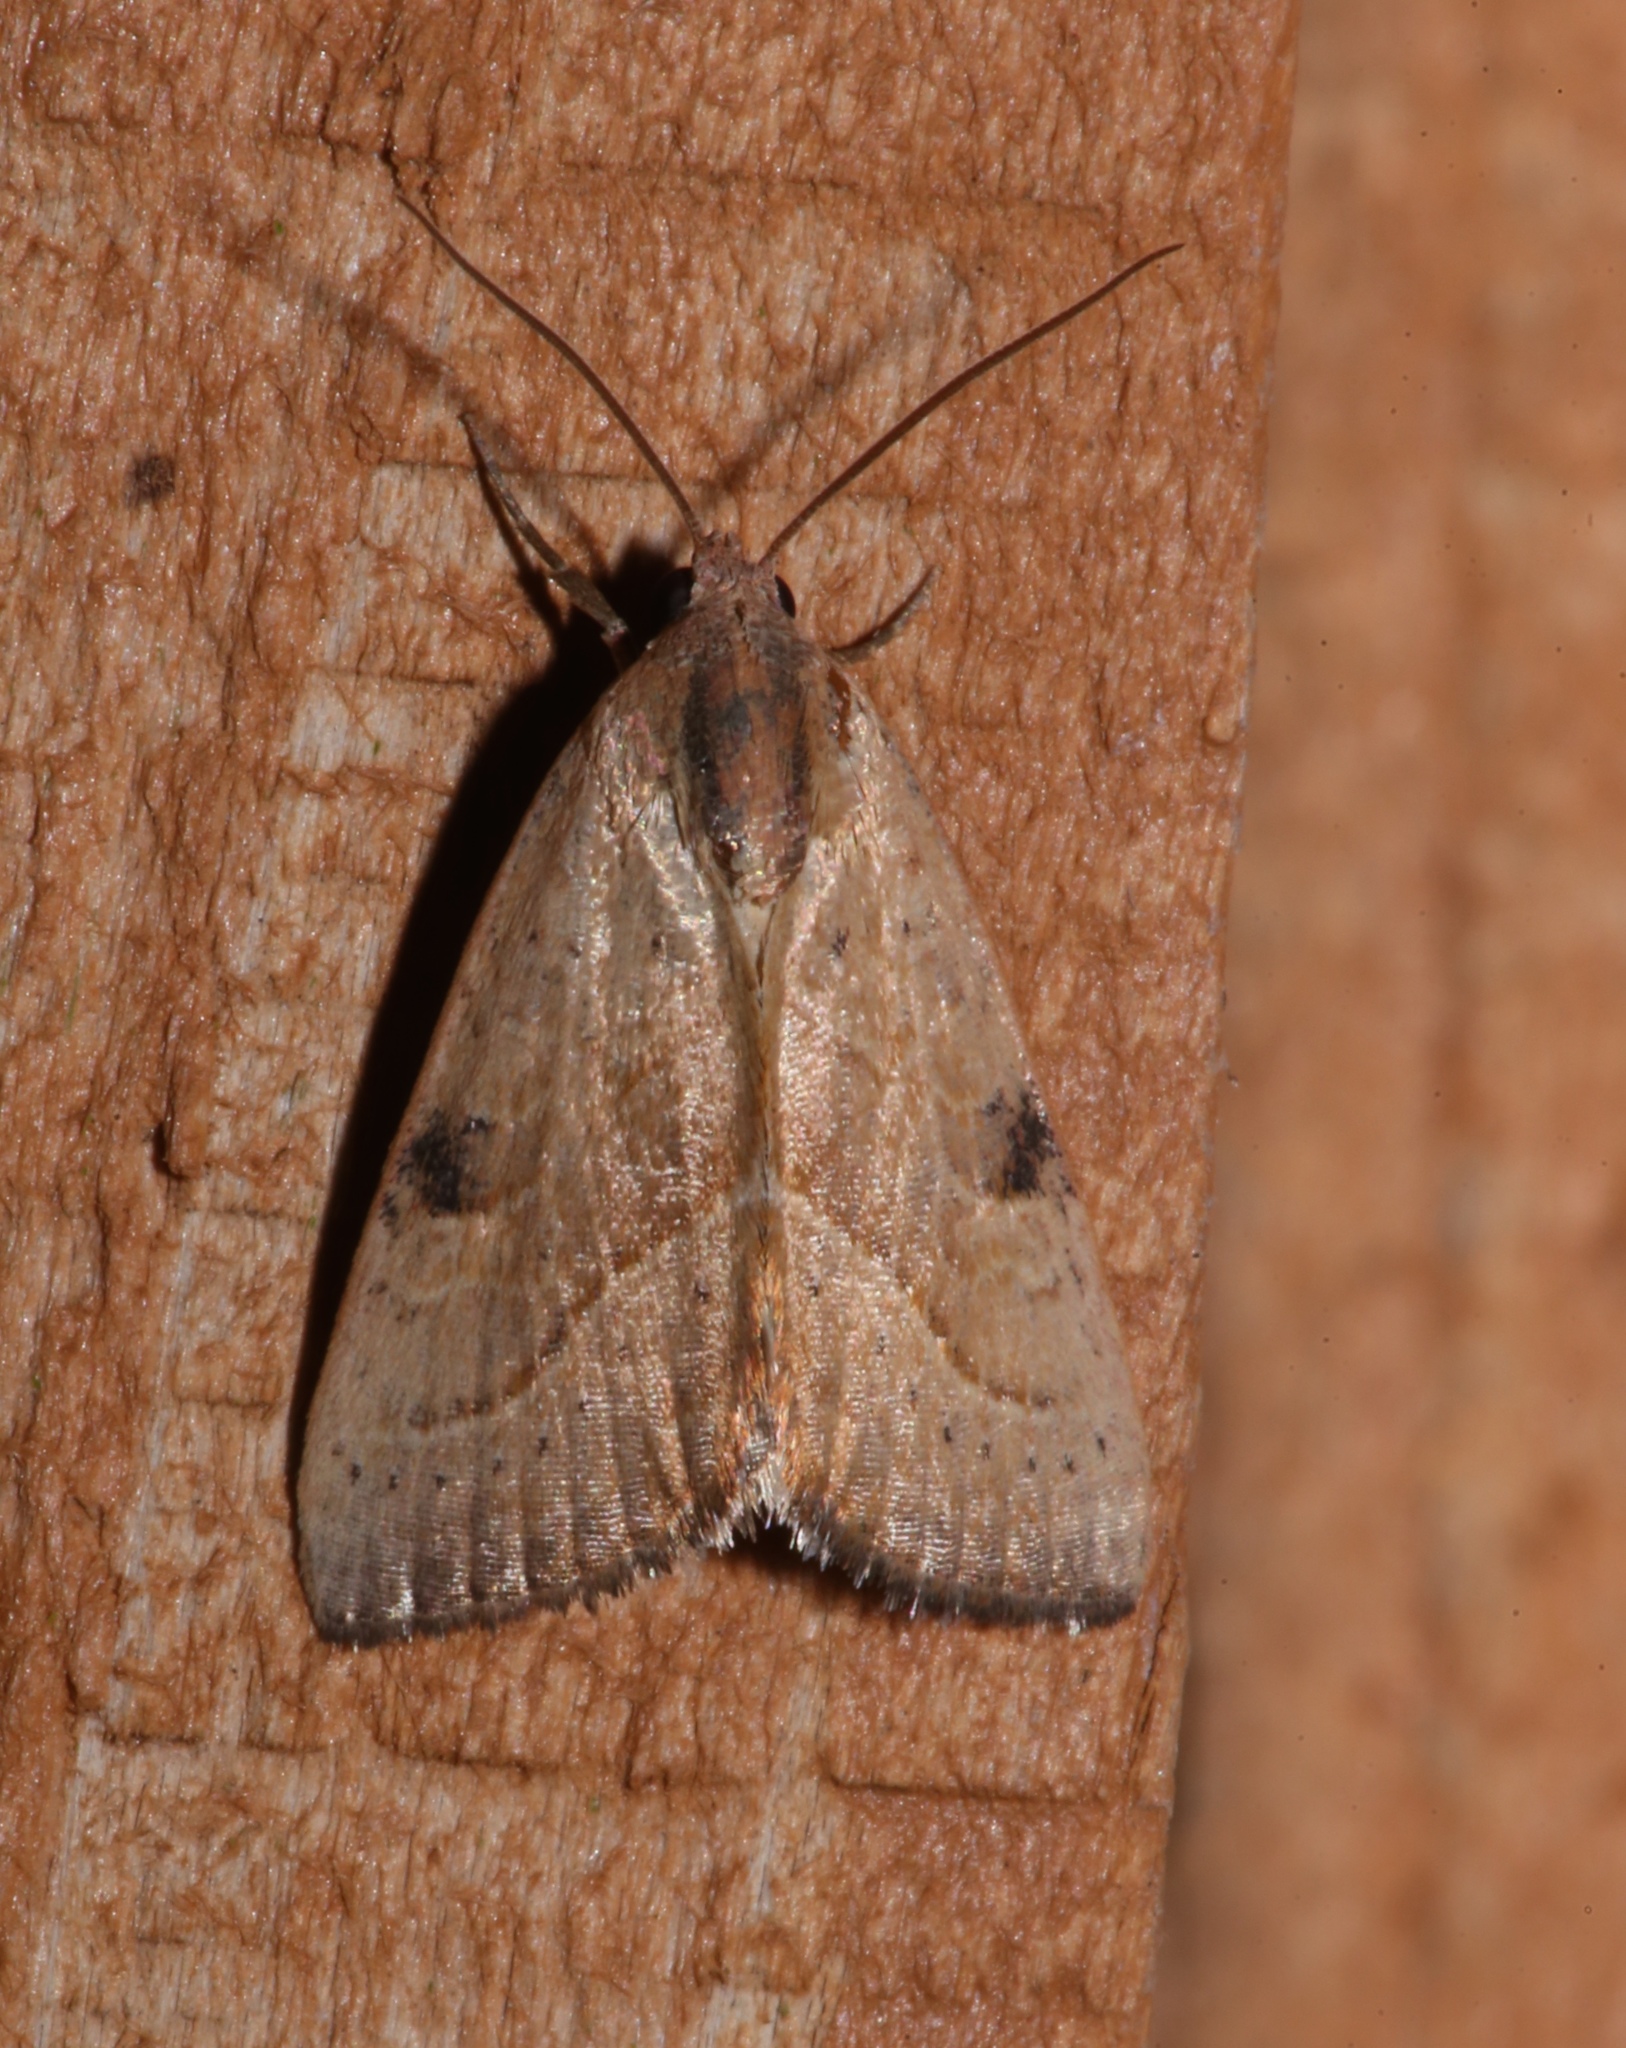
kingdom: Animalia
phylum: Arthropoda
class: Insecta
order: Lepidoptera
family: Noctuidae
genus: Galgula
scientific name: Galgula partita
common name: Wedgeling
